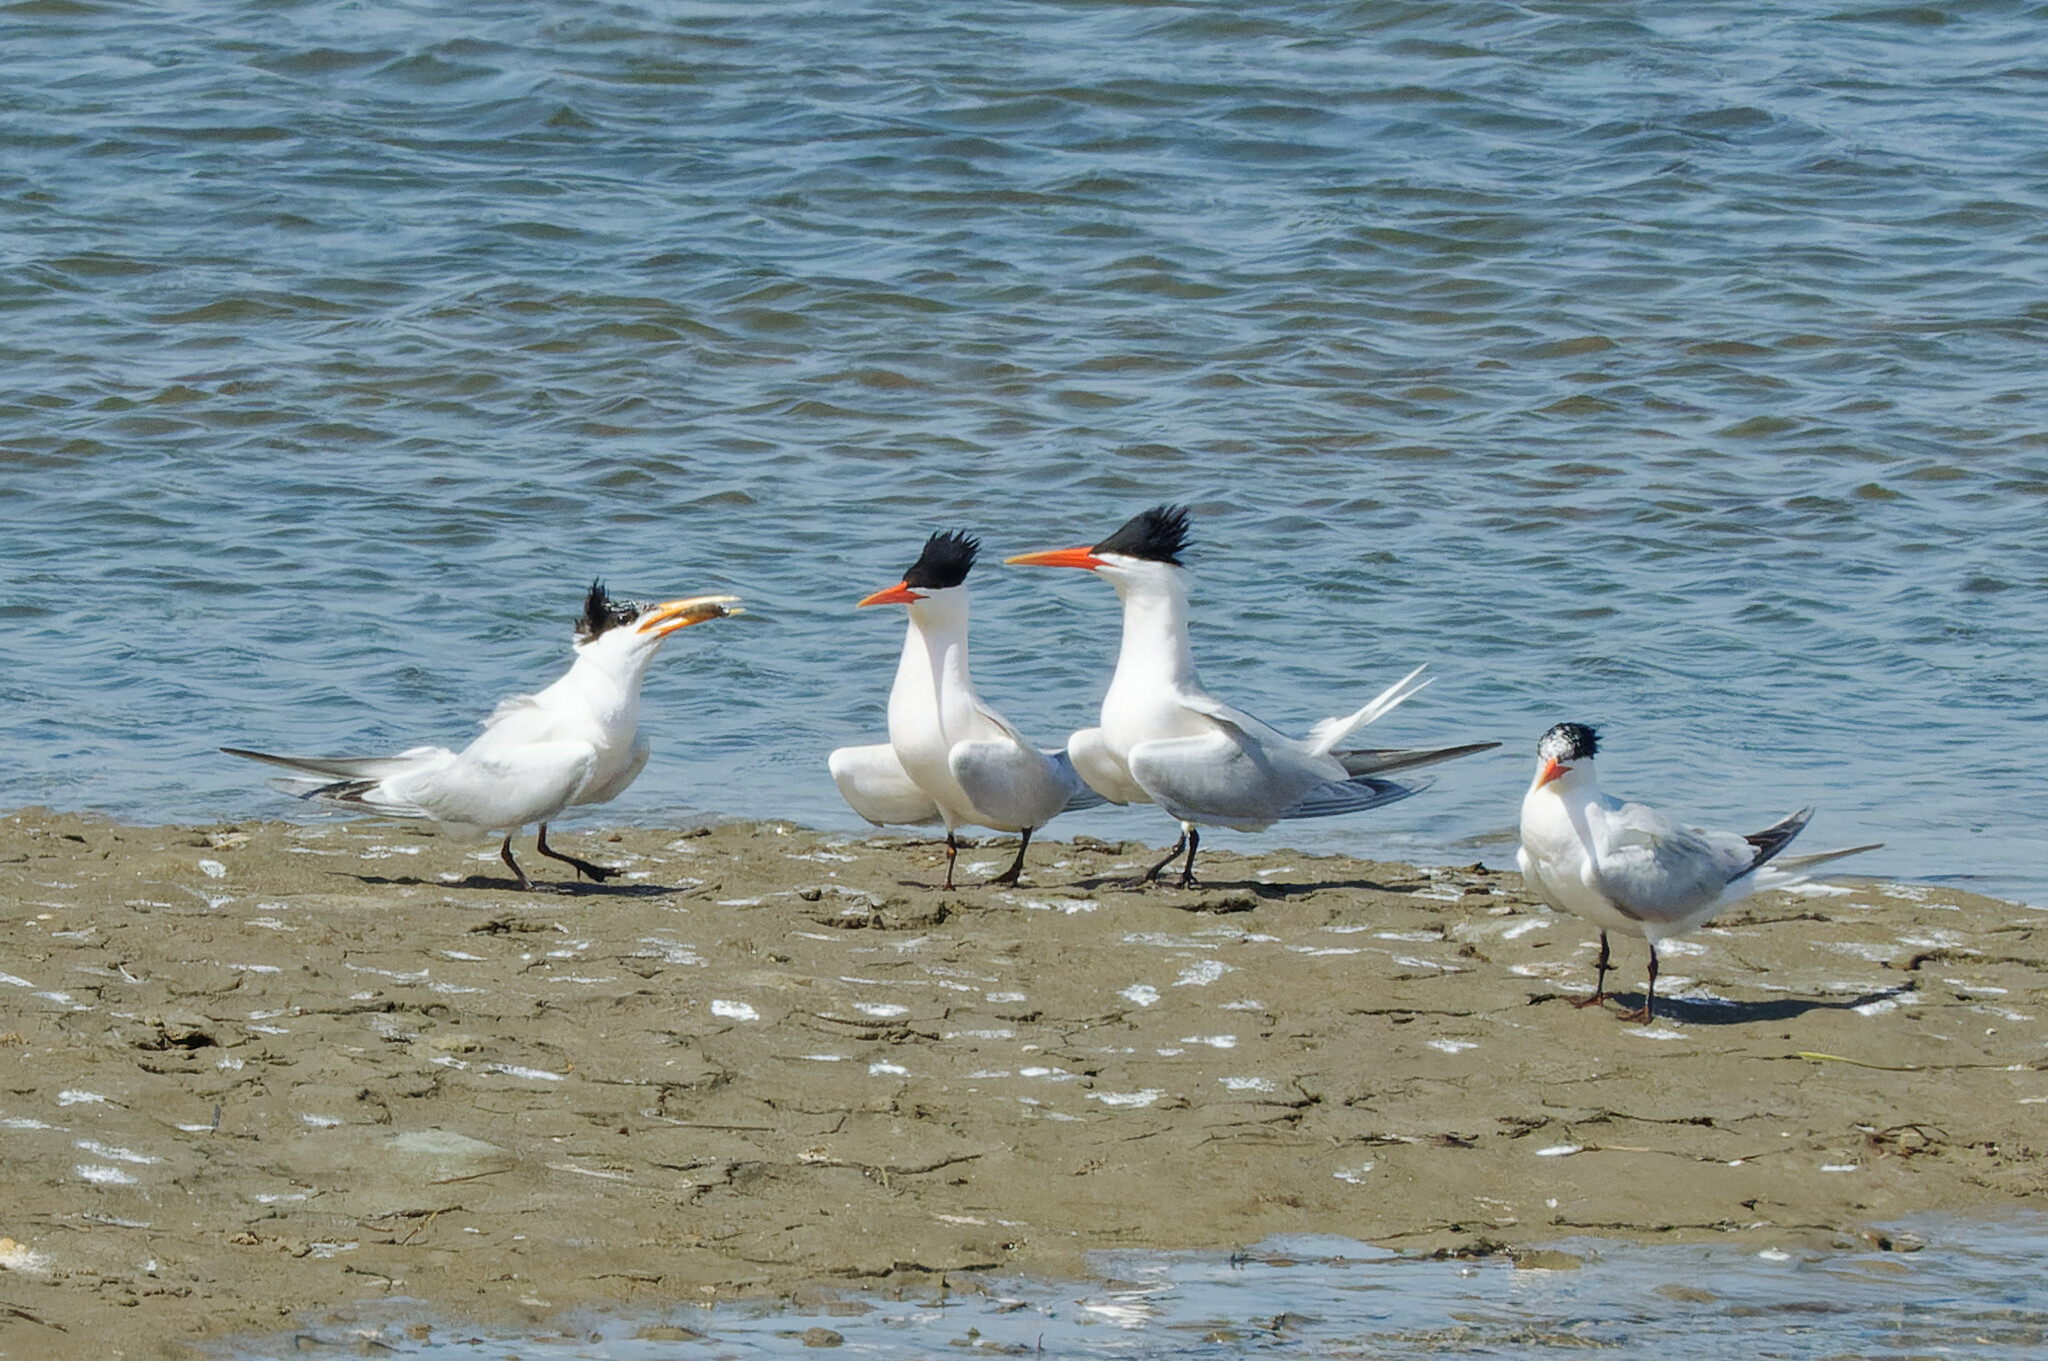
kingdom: Animalia
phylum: Chordata
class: Aves
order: Charadriiformes
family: Laridae
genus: Thalasseus
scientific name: Thalasseus elegans
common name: Elegant tern
